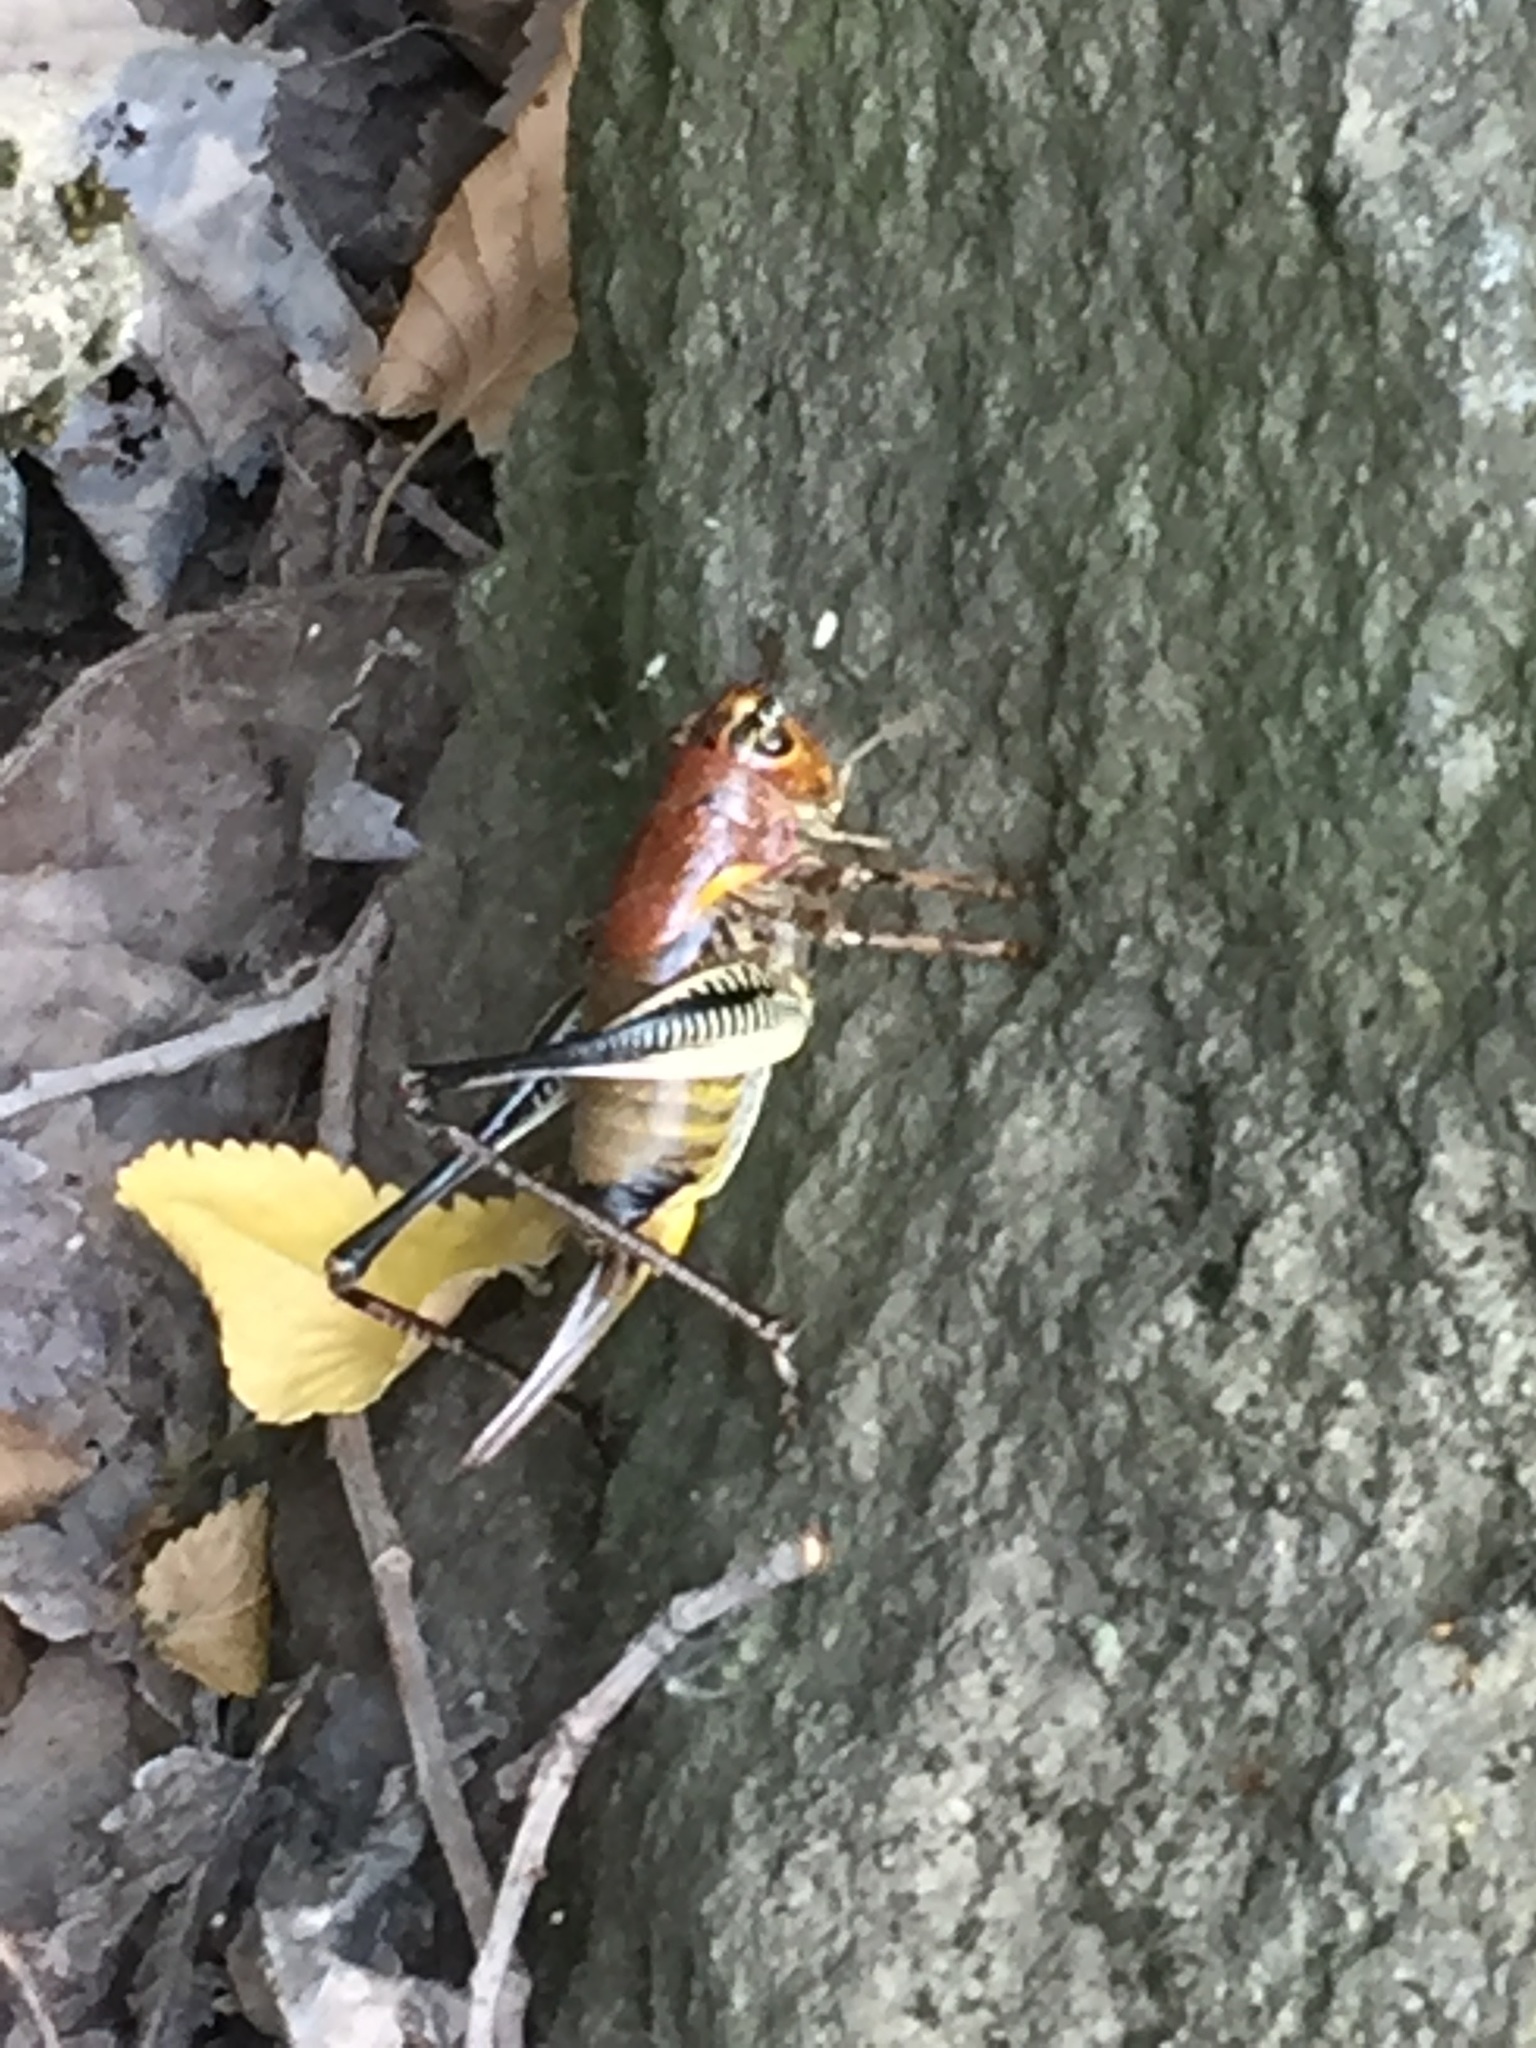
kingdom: Animalia
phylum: Arthropoda
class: Insecta
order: Orthoptera
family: Tettigoniidae
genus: Uvarovistia
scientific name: Uvarovistia satunini
